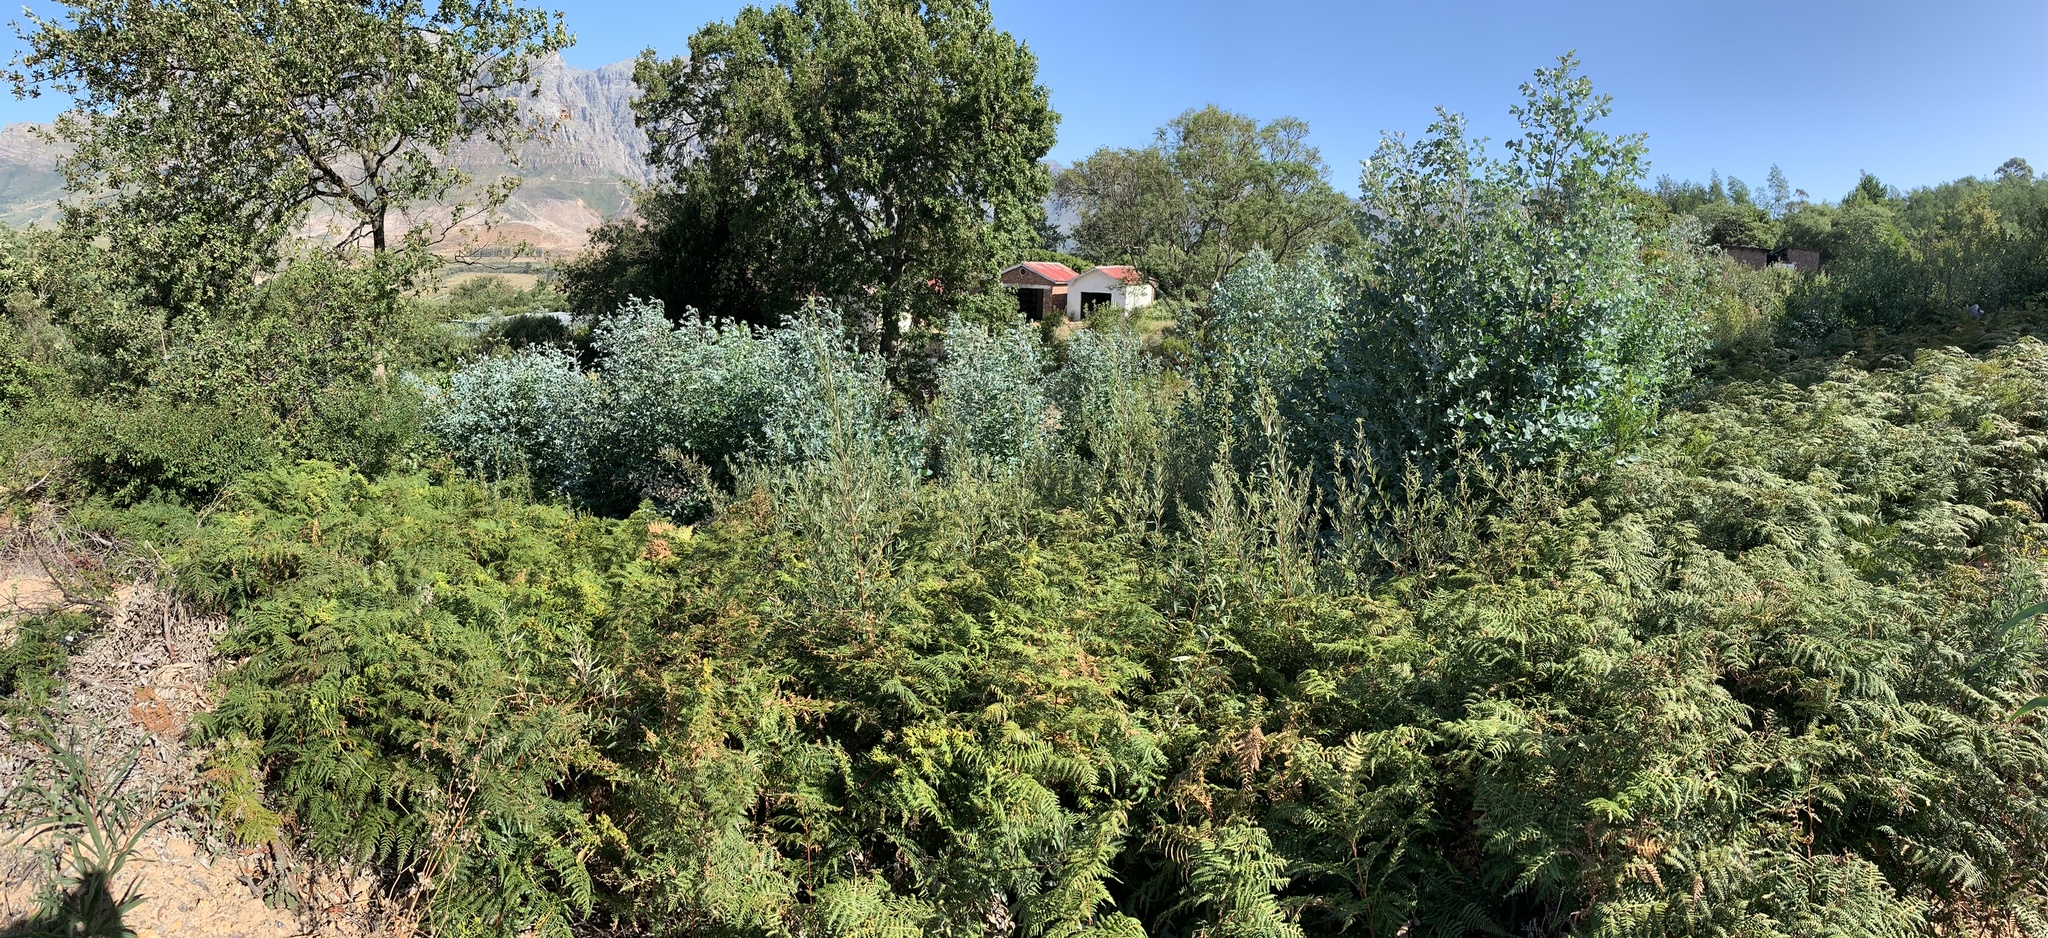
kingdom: Plantae
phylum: Tracheophyta
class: Magnoliopsida
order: Myrtales
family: Myrtaceae
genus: Eucalyptus
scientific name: Eucalyptus cinerea
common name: Argyle apple
